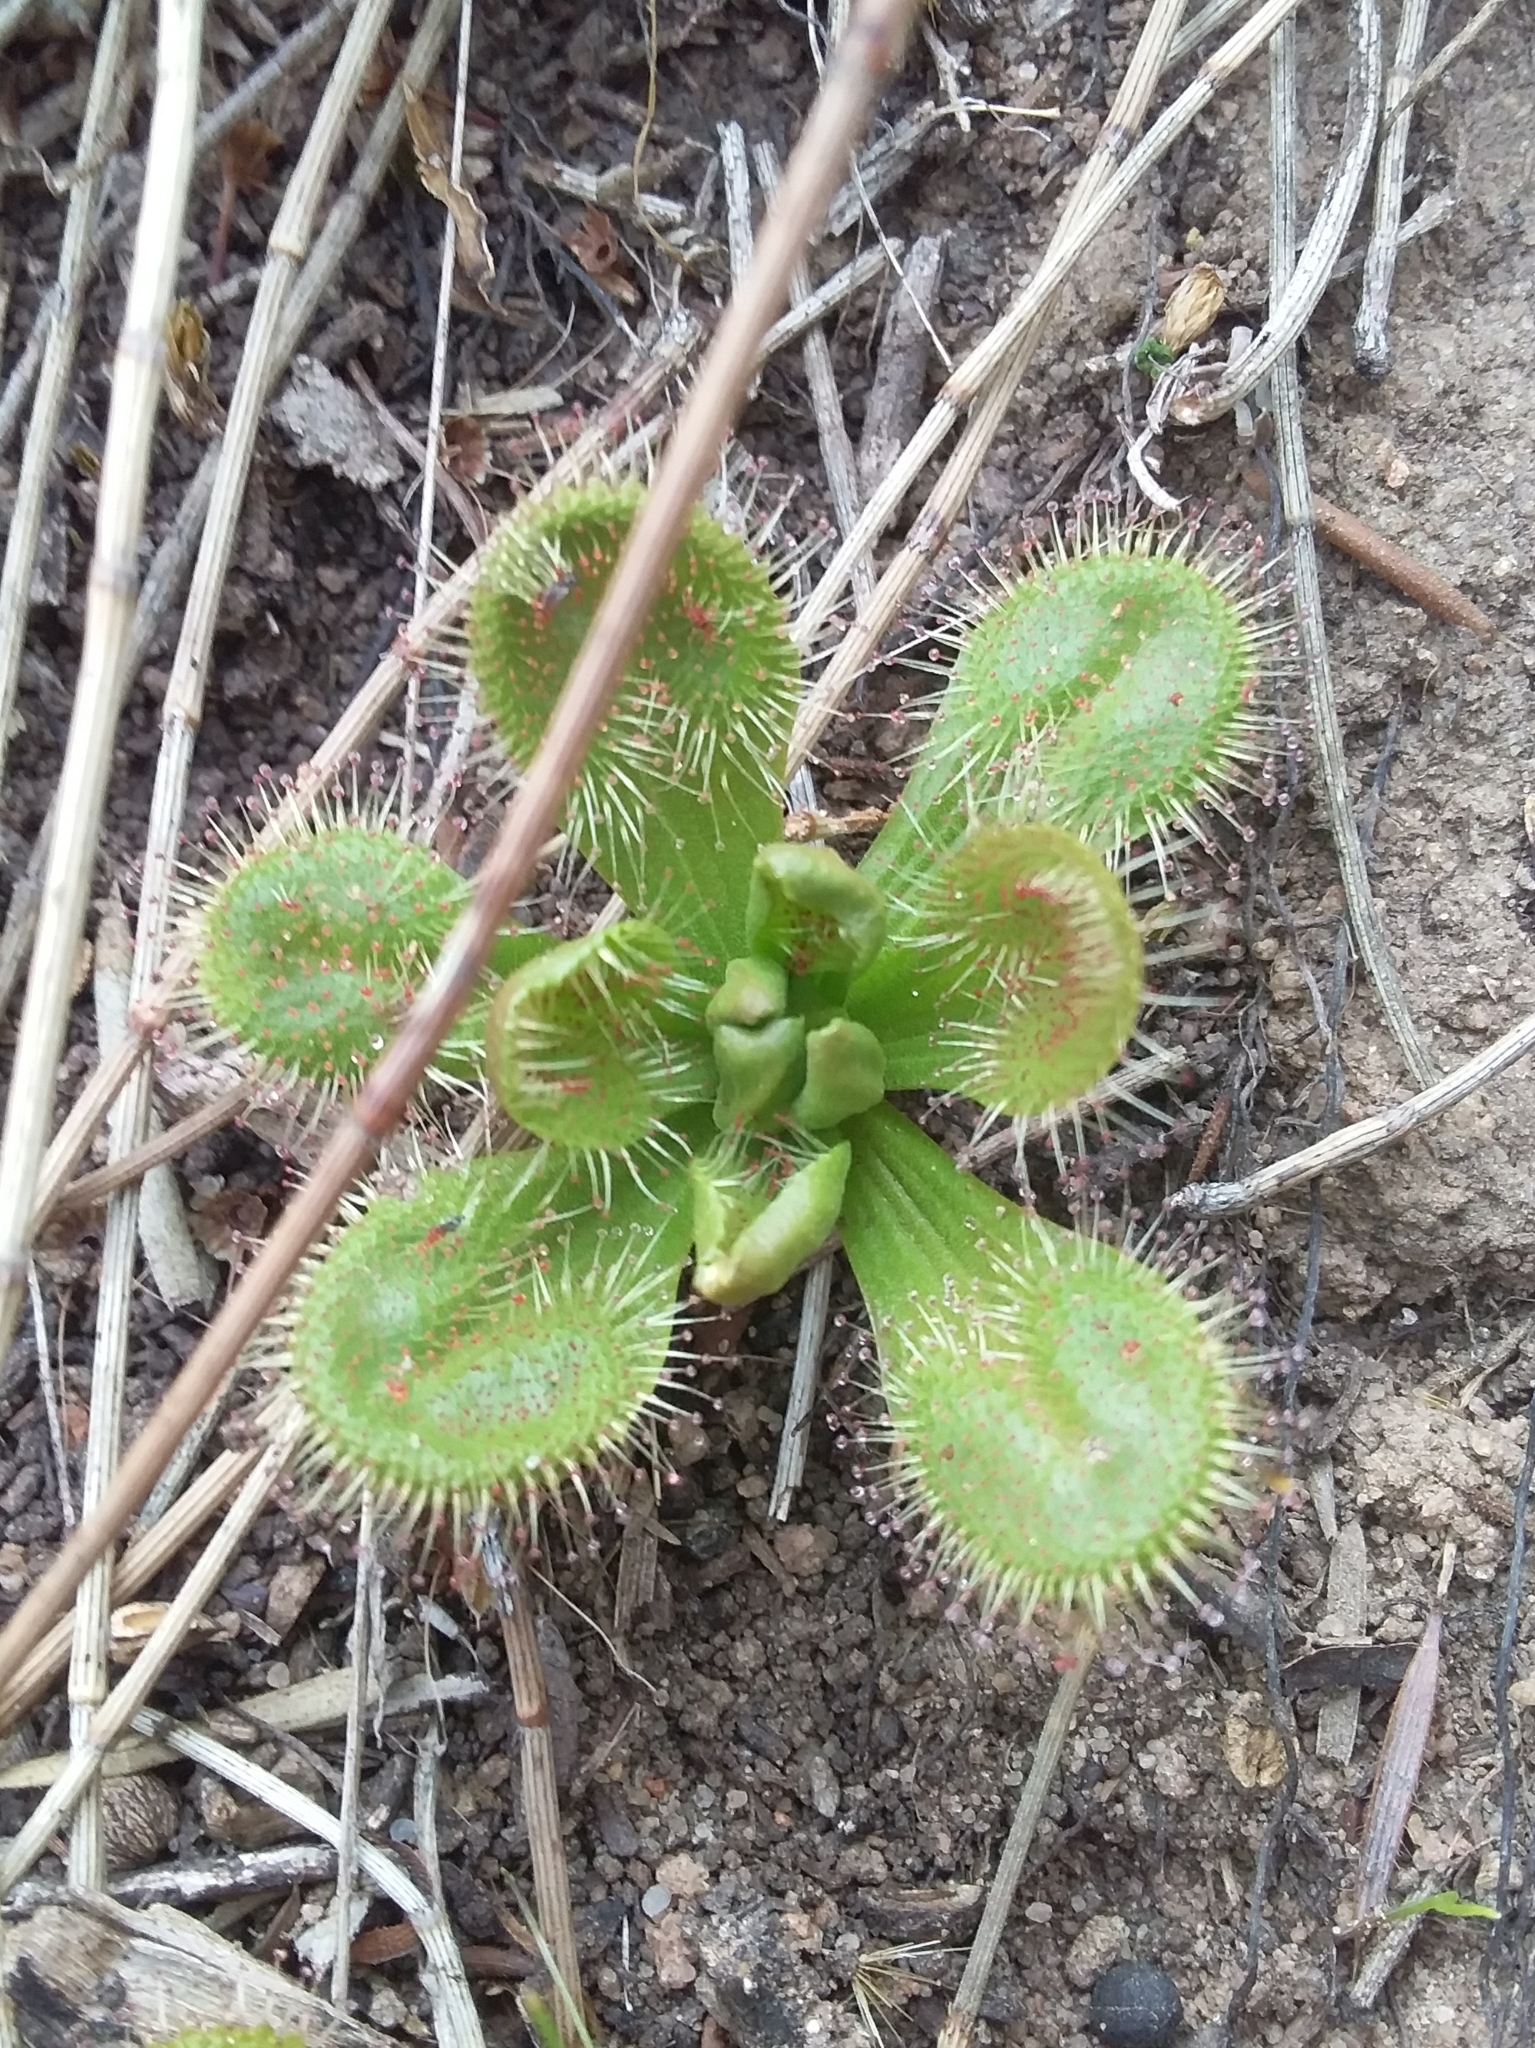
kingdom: Plantae
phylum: Tracheophyta
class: Magnoliopsida
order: Caryophyllales
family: Droseraceae
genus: Drosera
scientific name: Drosera whittakeri
